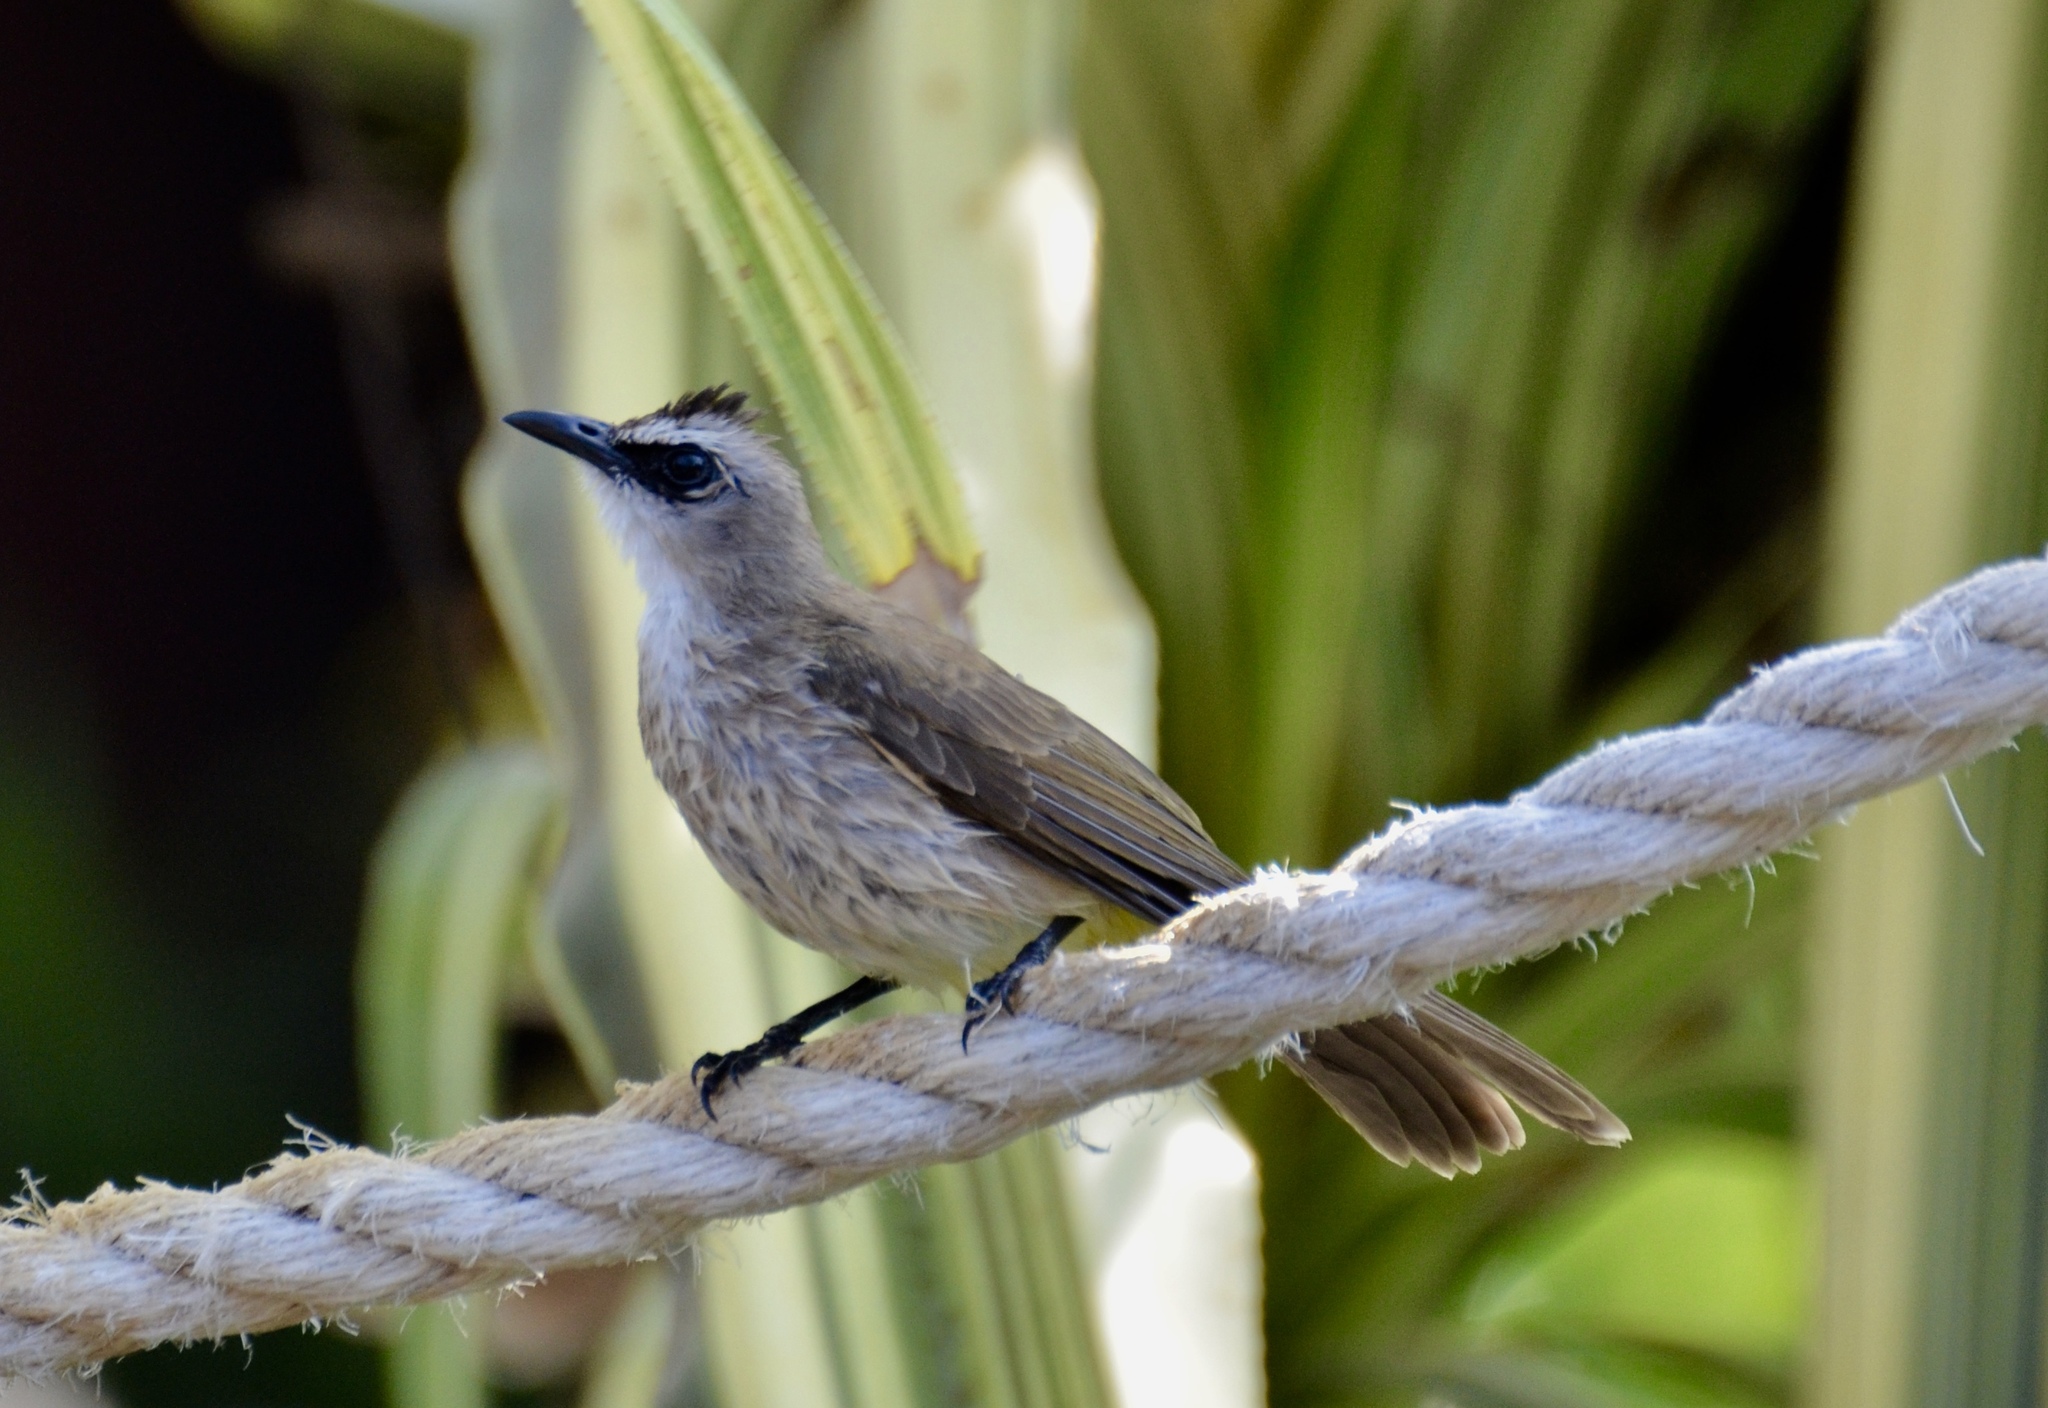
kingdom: Animalia
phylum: Chordata
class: Aves
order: Passeriformes
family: Pycnonotidae
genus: Pycnonotus
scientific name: Pycnonotus goiavier
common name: Yellow-vented bulbul
